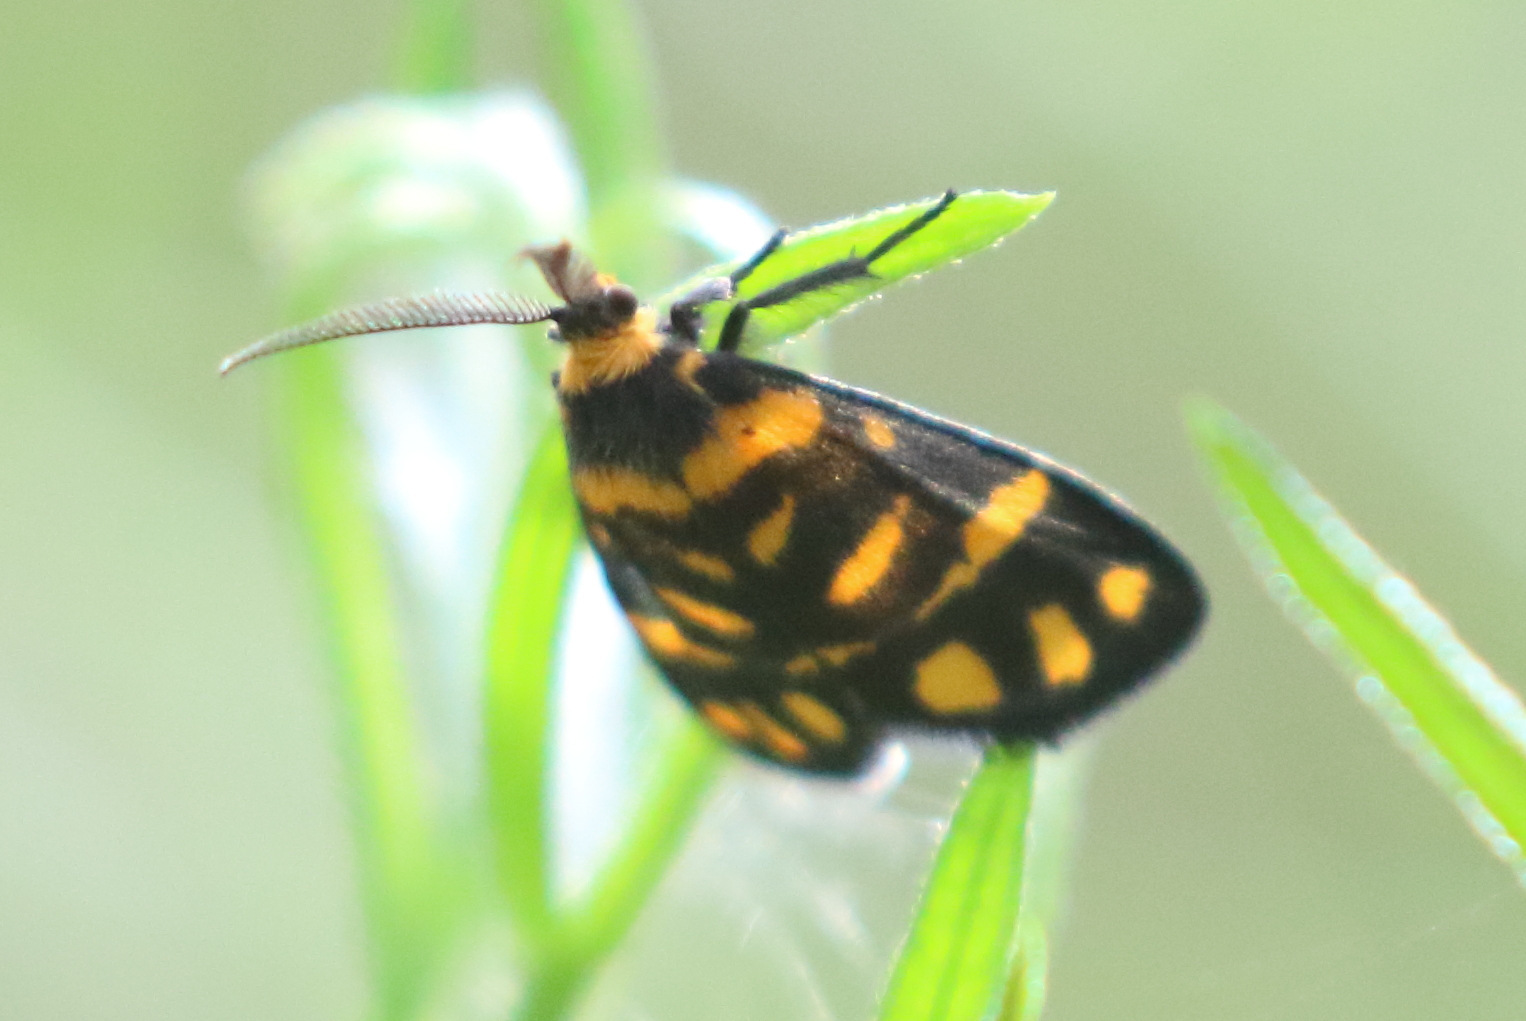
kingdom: Animalia
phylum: Arthropoda
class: Insecta
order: Lepidoptera
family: Erebidae
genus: Asura
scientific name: Asura lydia
